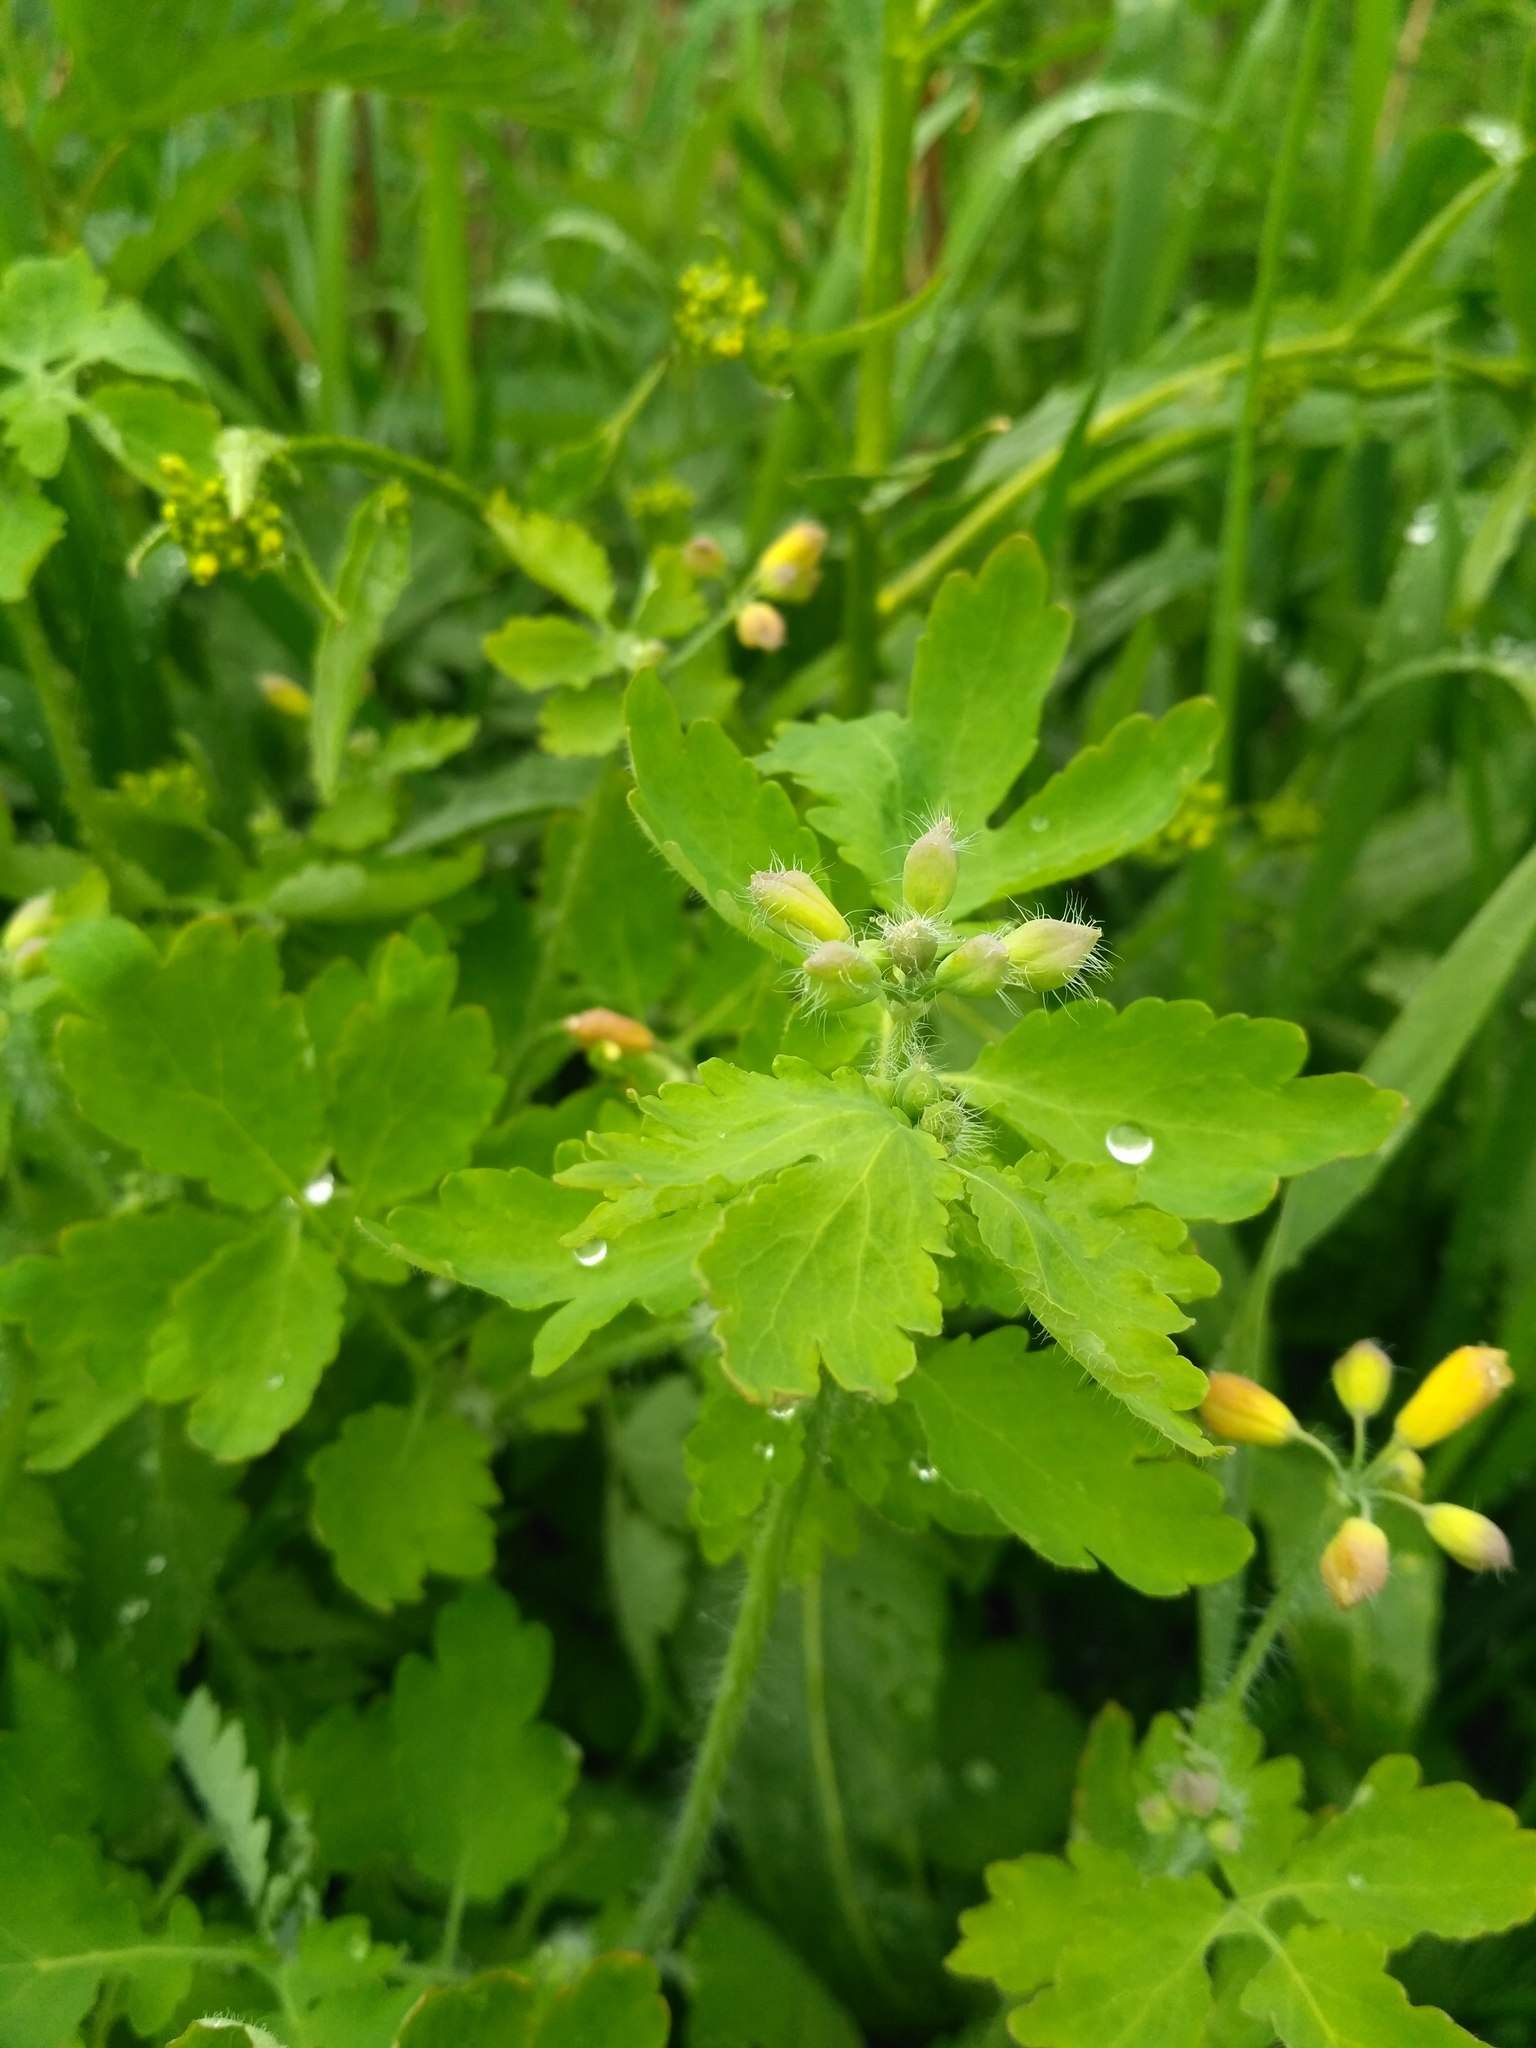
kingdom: Plantae
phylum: Tracheophyta
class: Magnoliopsida
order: Ranunculales
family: Papaveraceae
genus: Chelidonium
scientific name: Chelidonium majus
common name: Greater celandine
